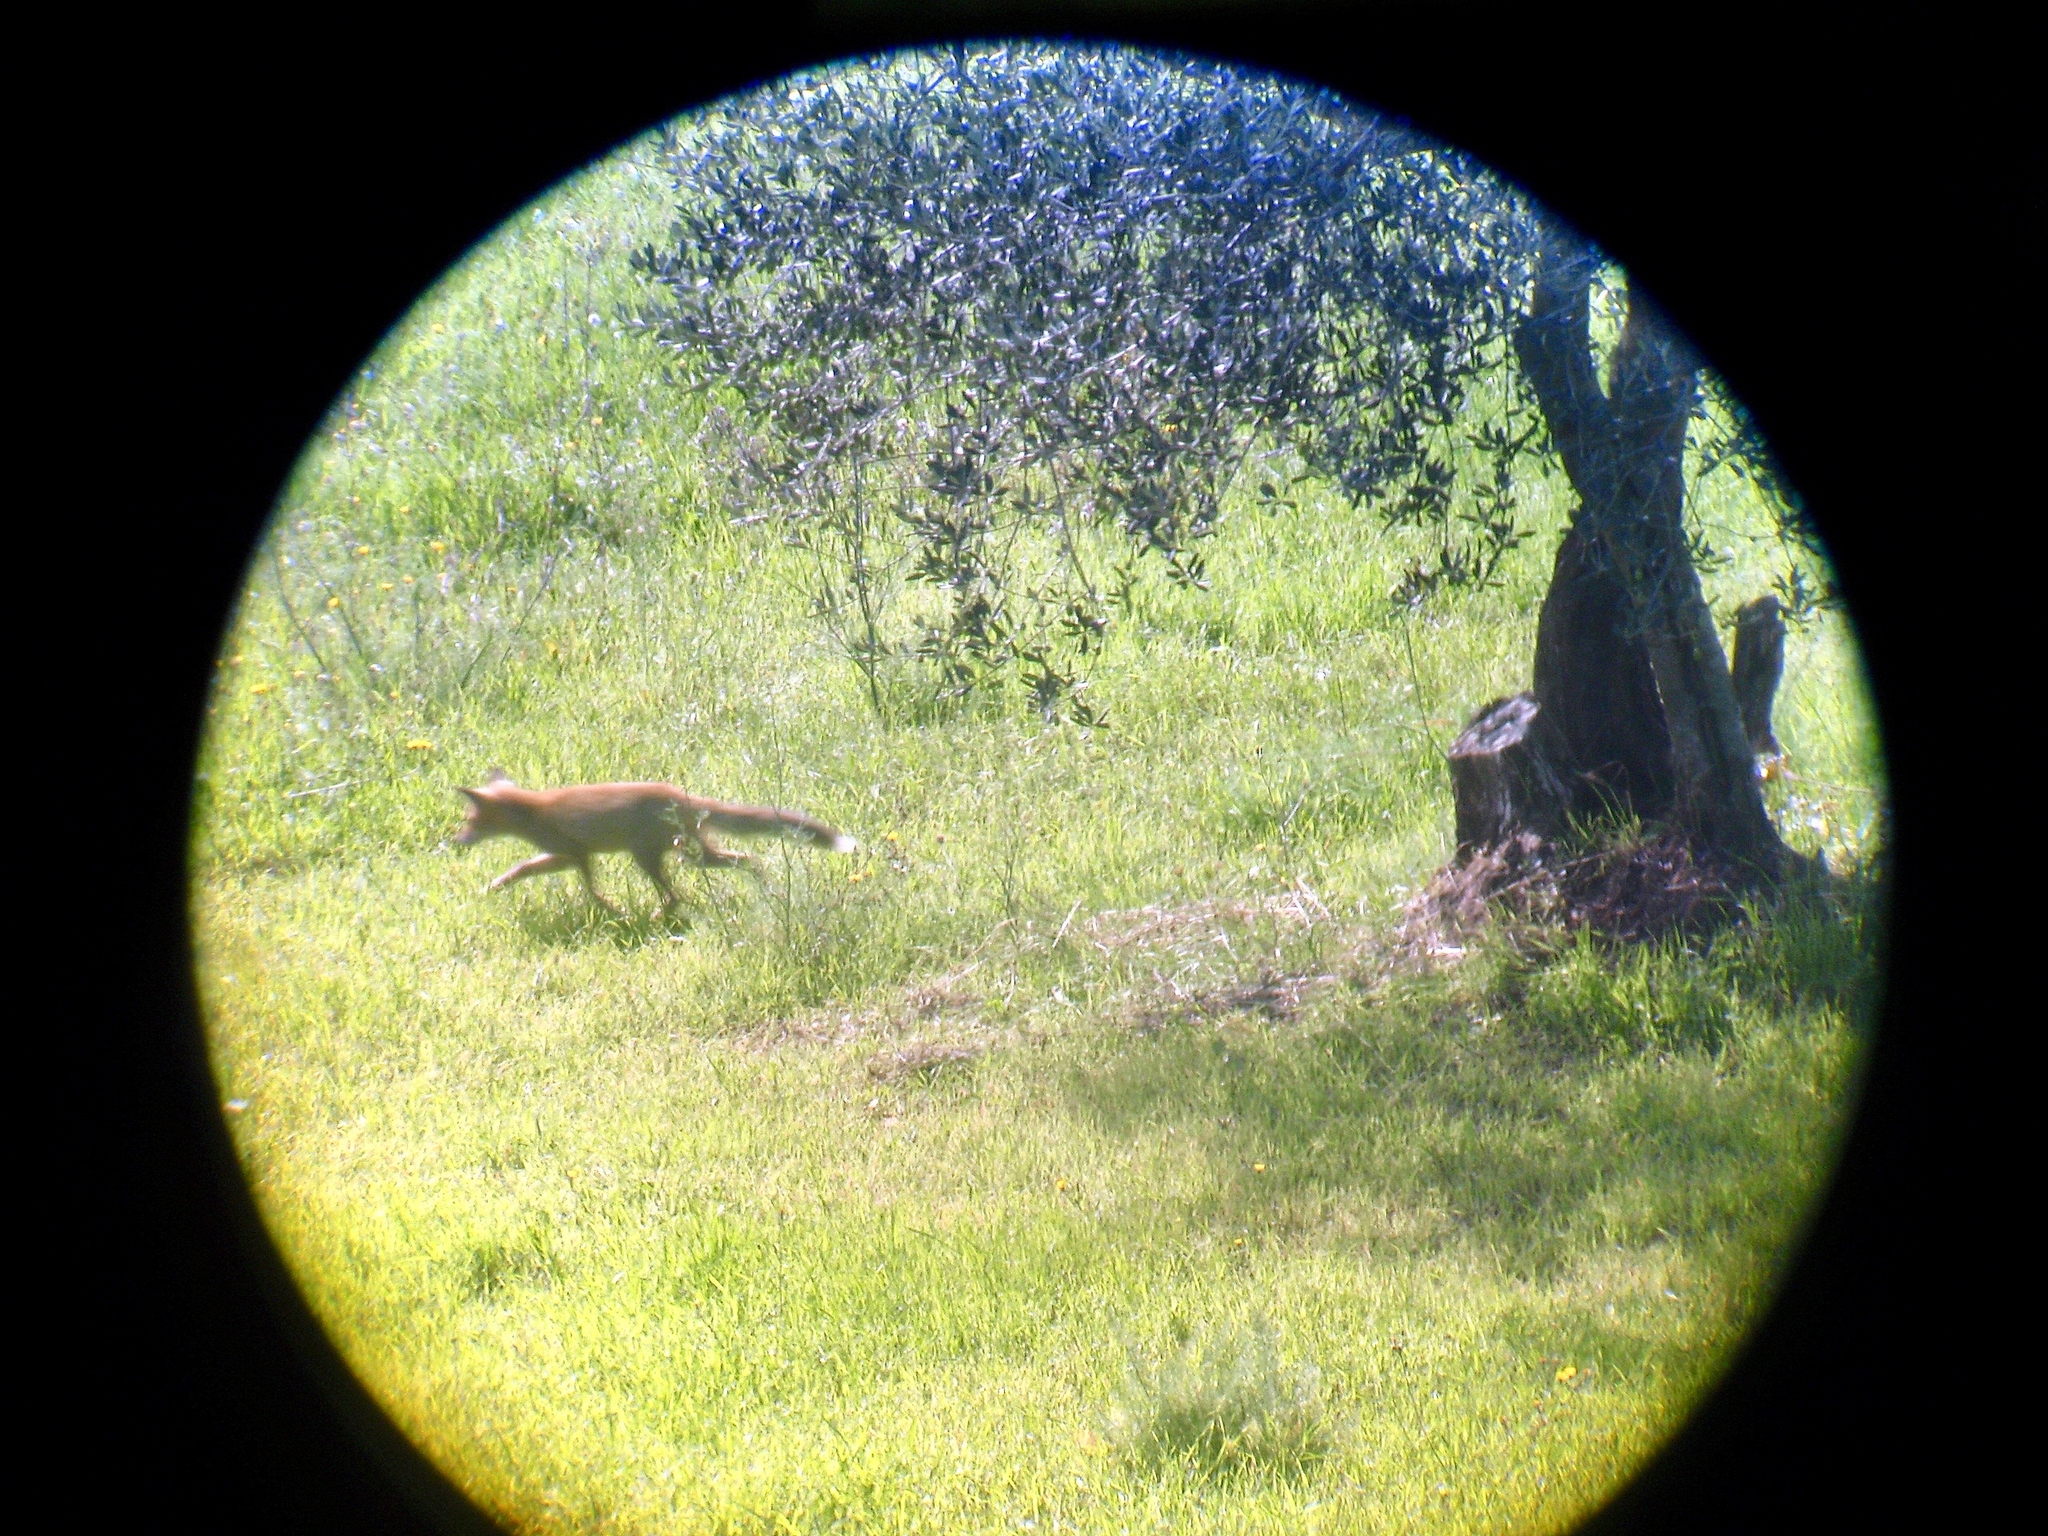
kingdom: Animalia
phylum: Chordata
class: Mammalia
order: Carnivora
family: Canidae
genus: Vulpes
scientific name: Vulpes vulpes
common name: Red fox
